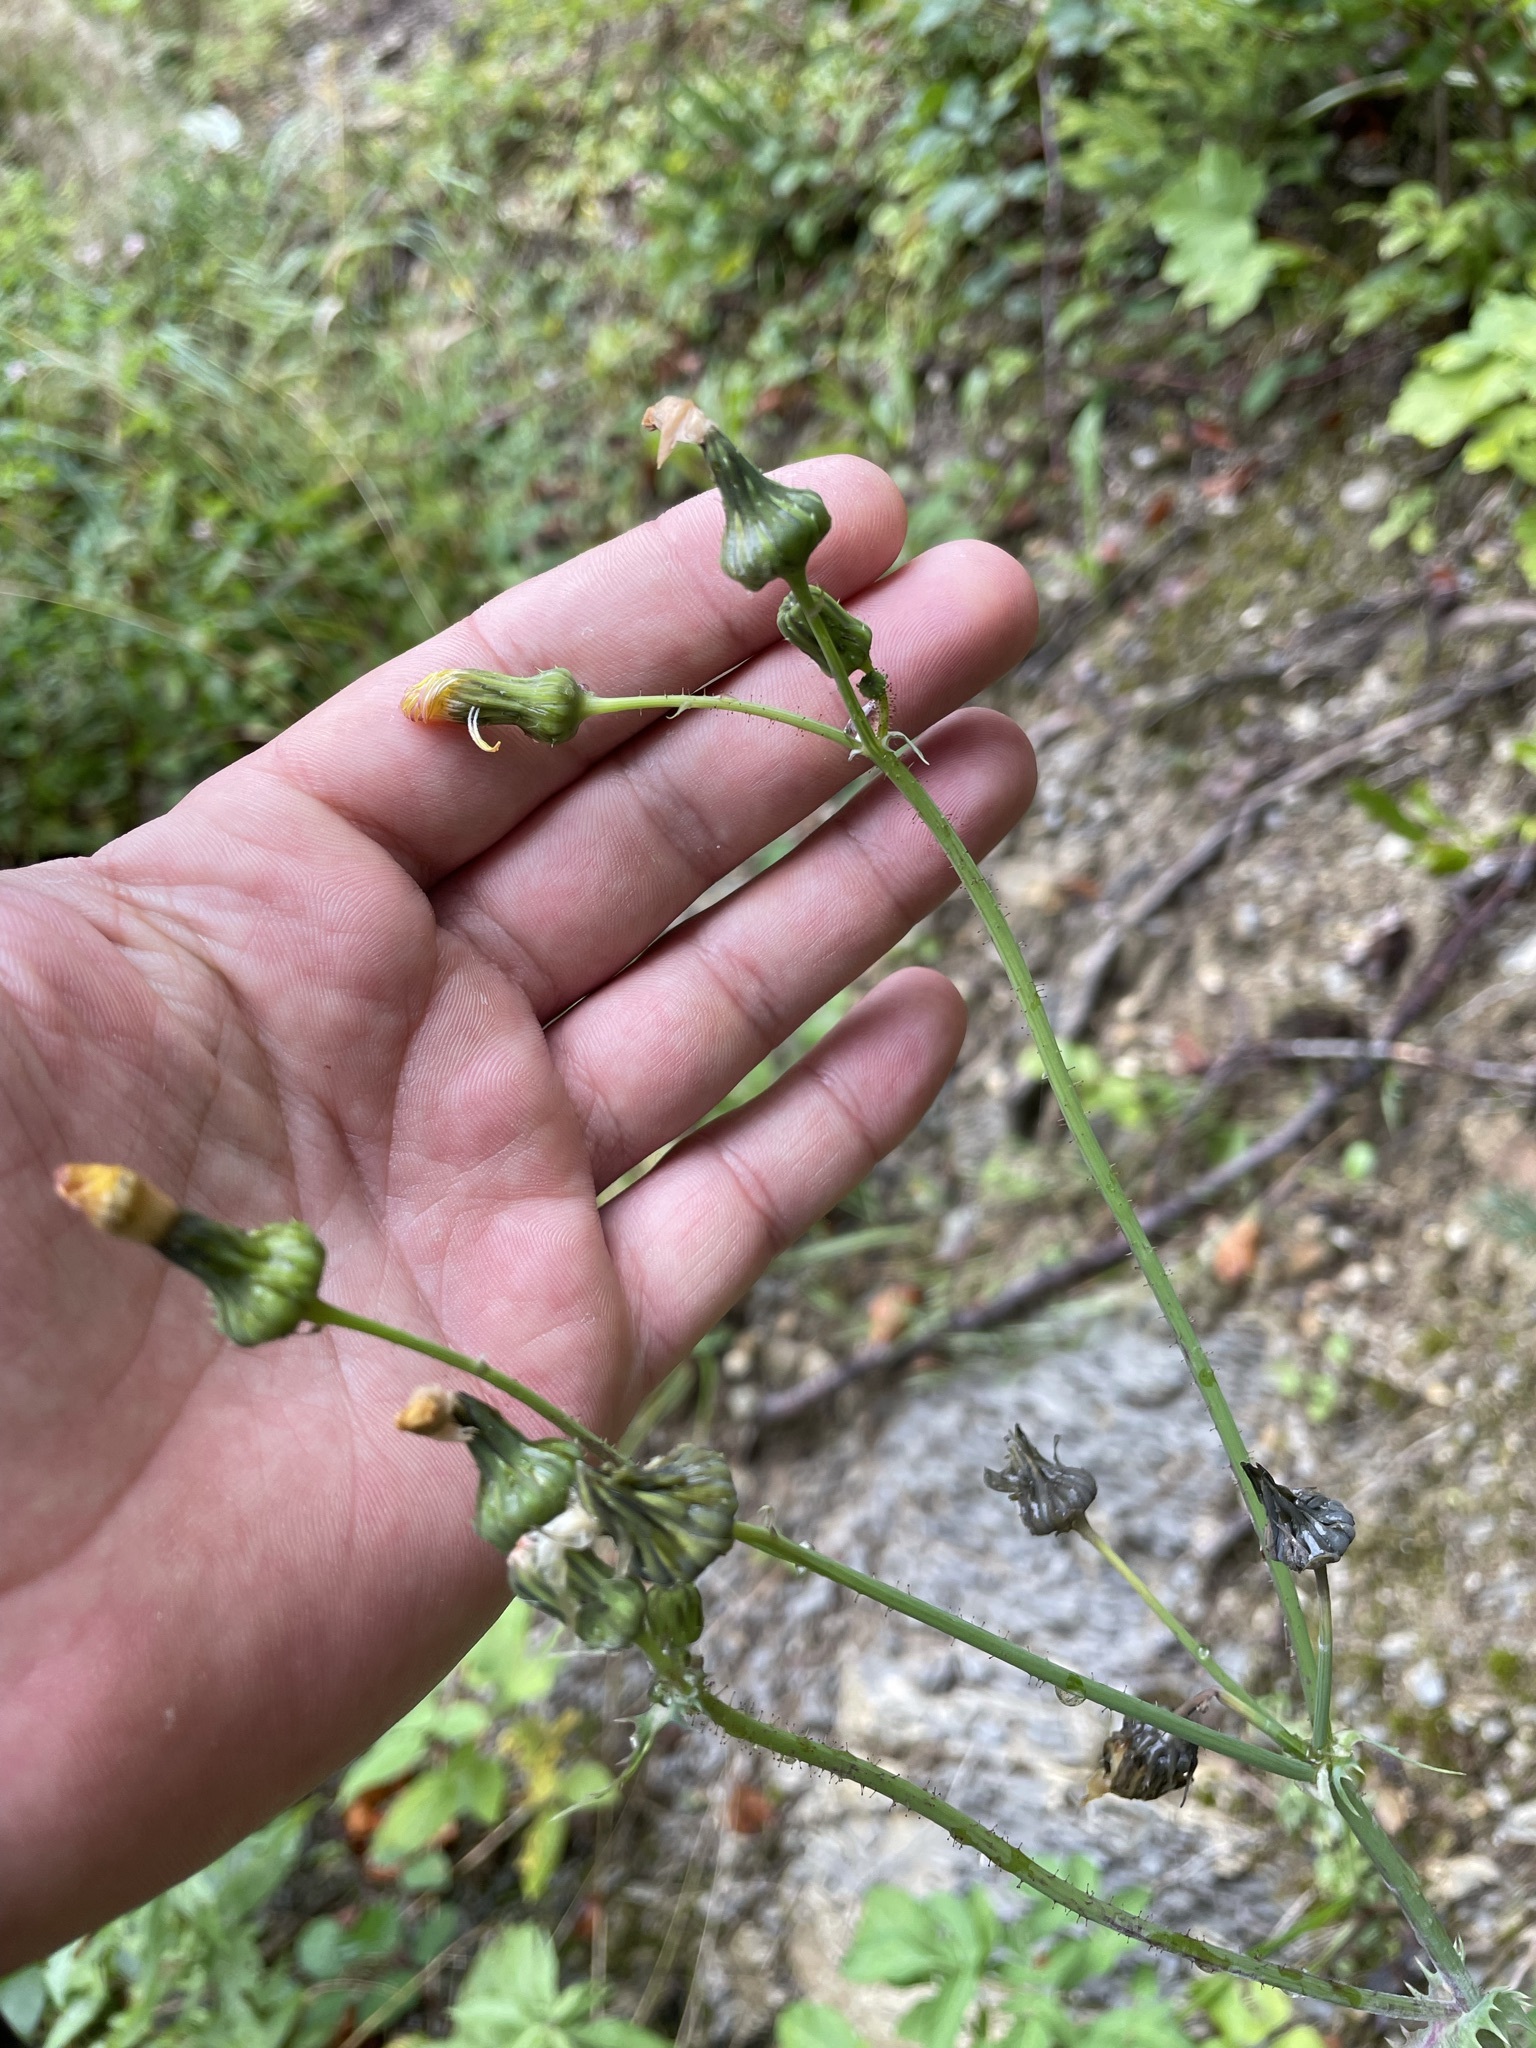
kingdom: Plantae
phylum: Tracheophyta
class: Magnoliopsida
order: Asterales
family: Asteraceae
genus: Sonchus
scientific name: Sonchus asper
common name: Prickly sow-thistle
